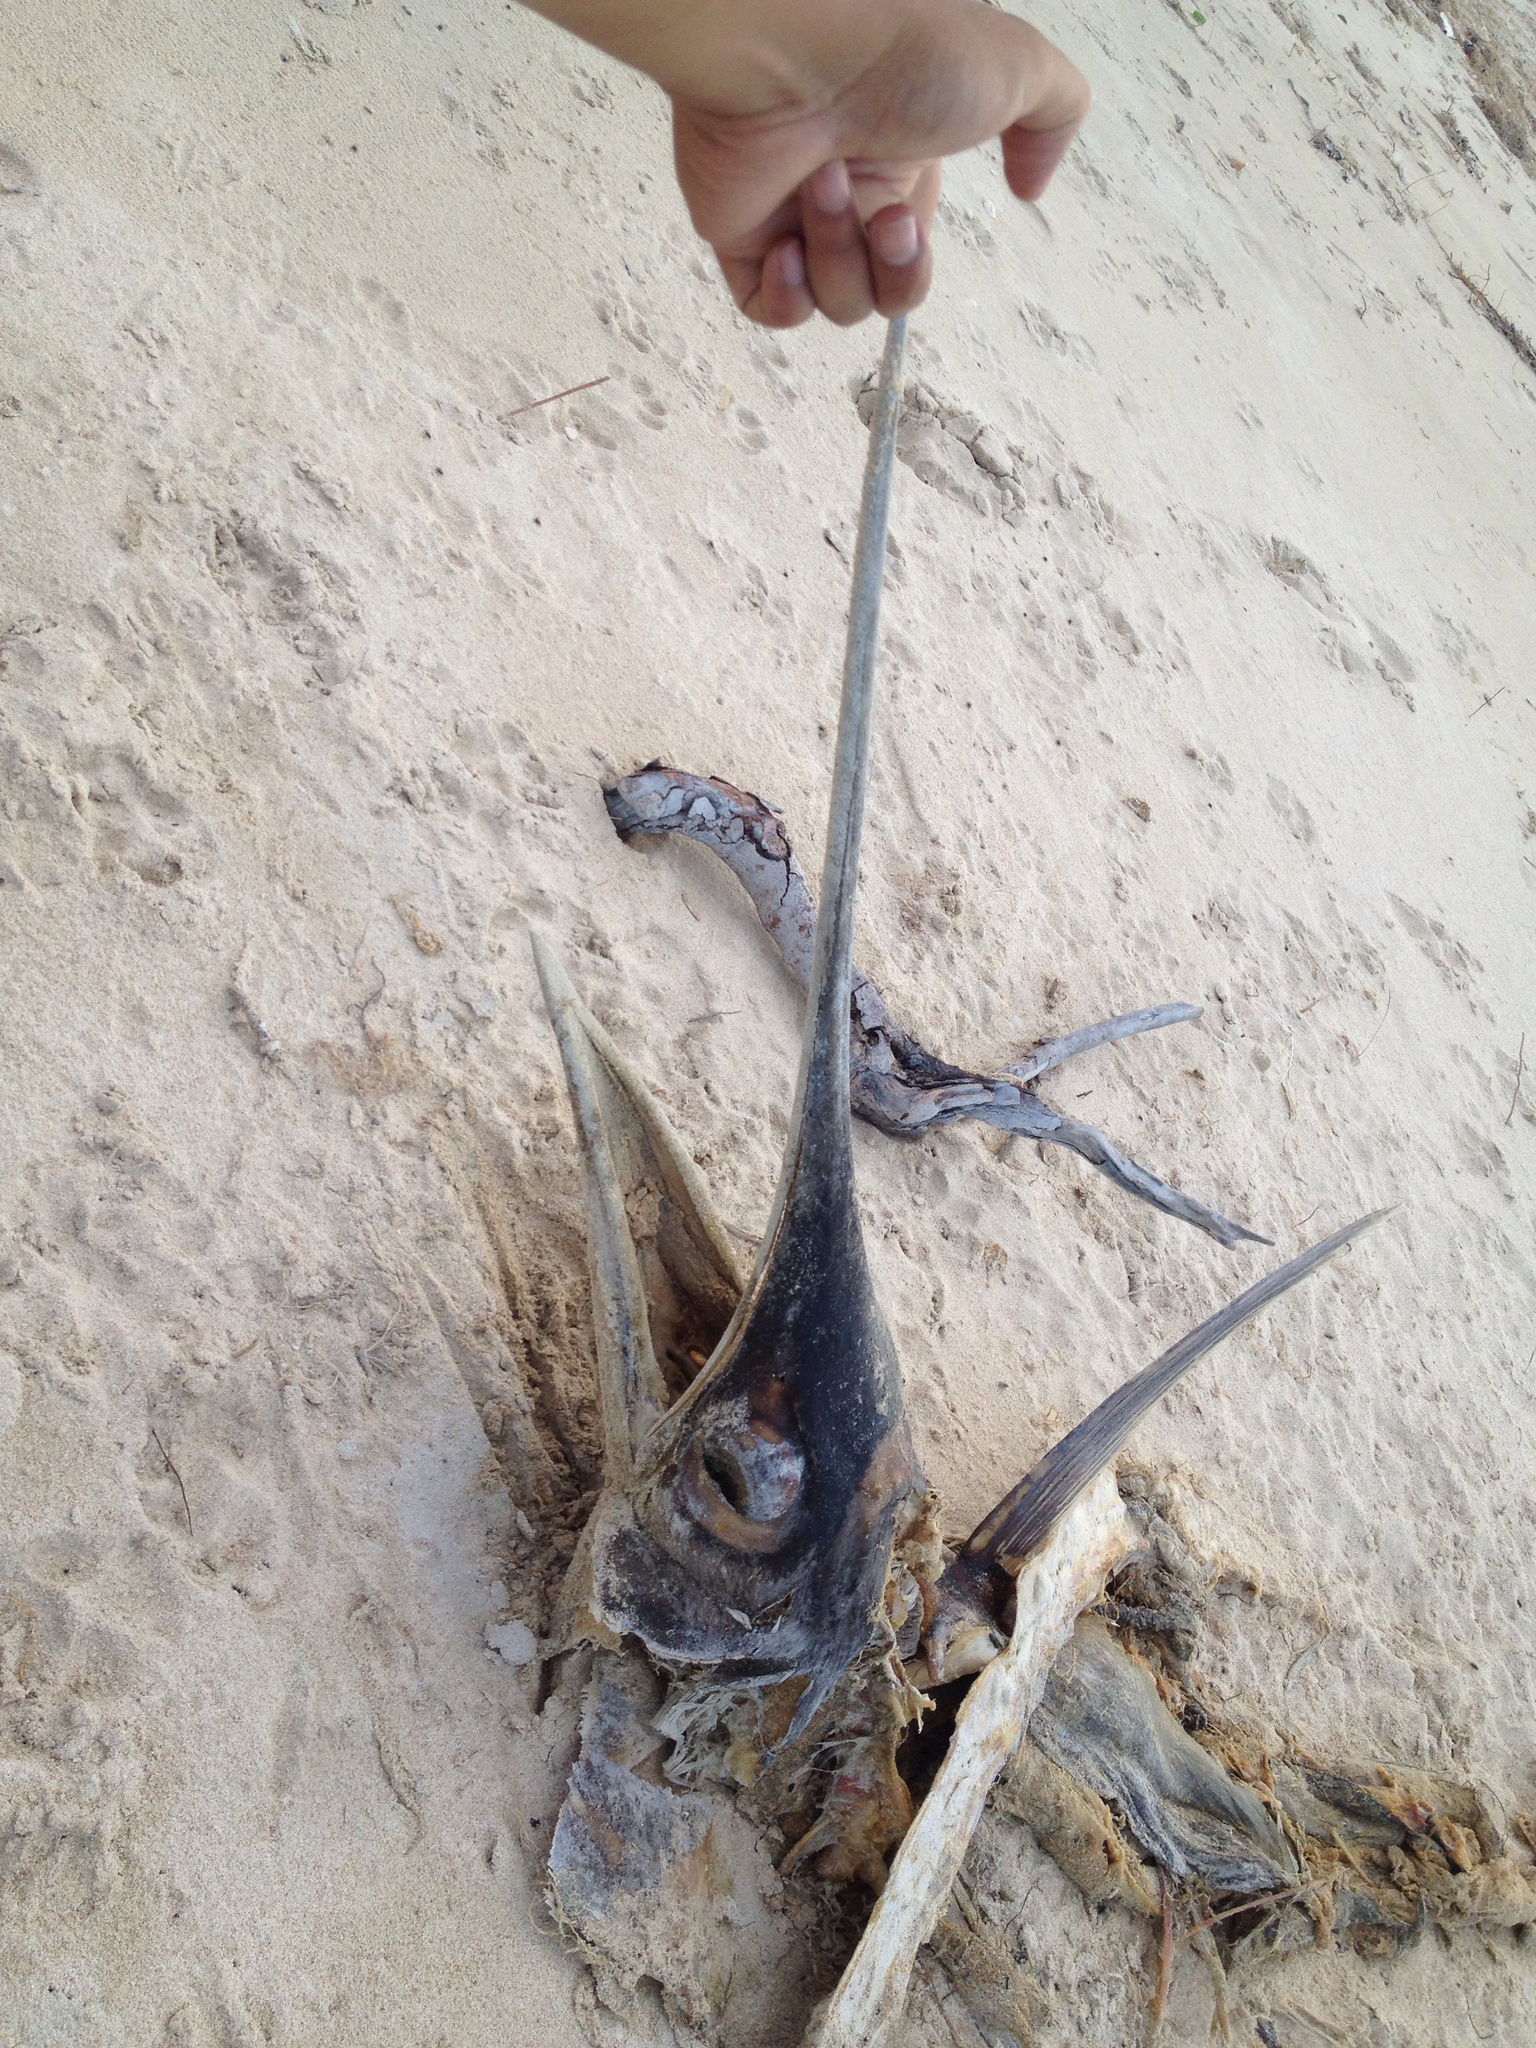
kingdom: Animalia
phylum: Chordata
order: Perciformes
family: Istiophoridae
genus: Istiophorus
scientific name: Istiophorus platypterus
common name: Sailfish
